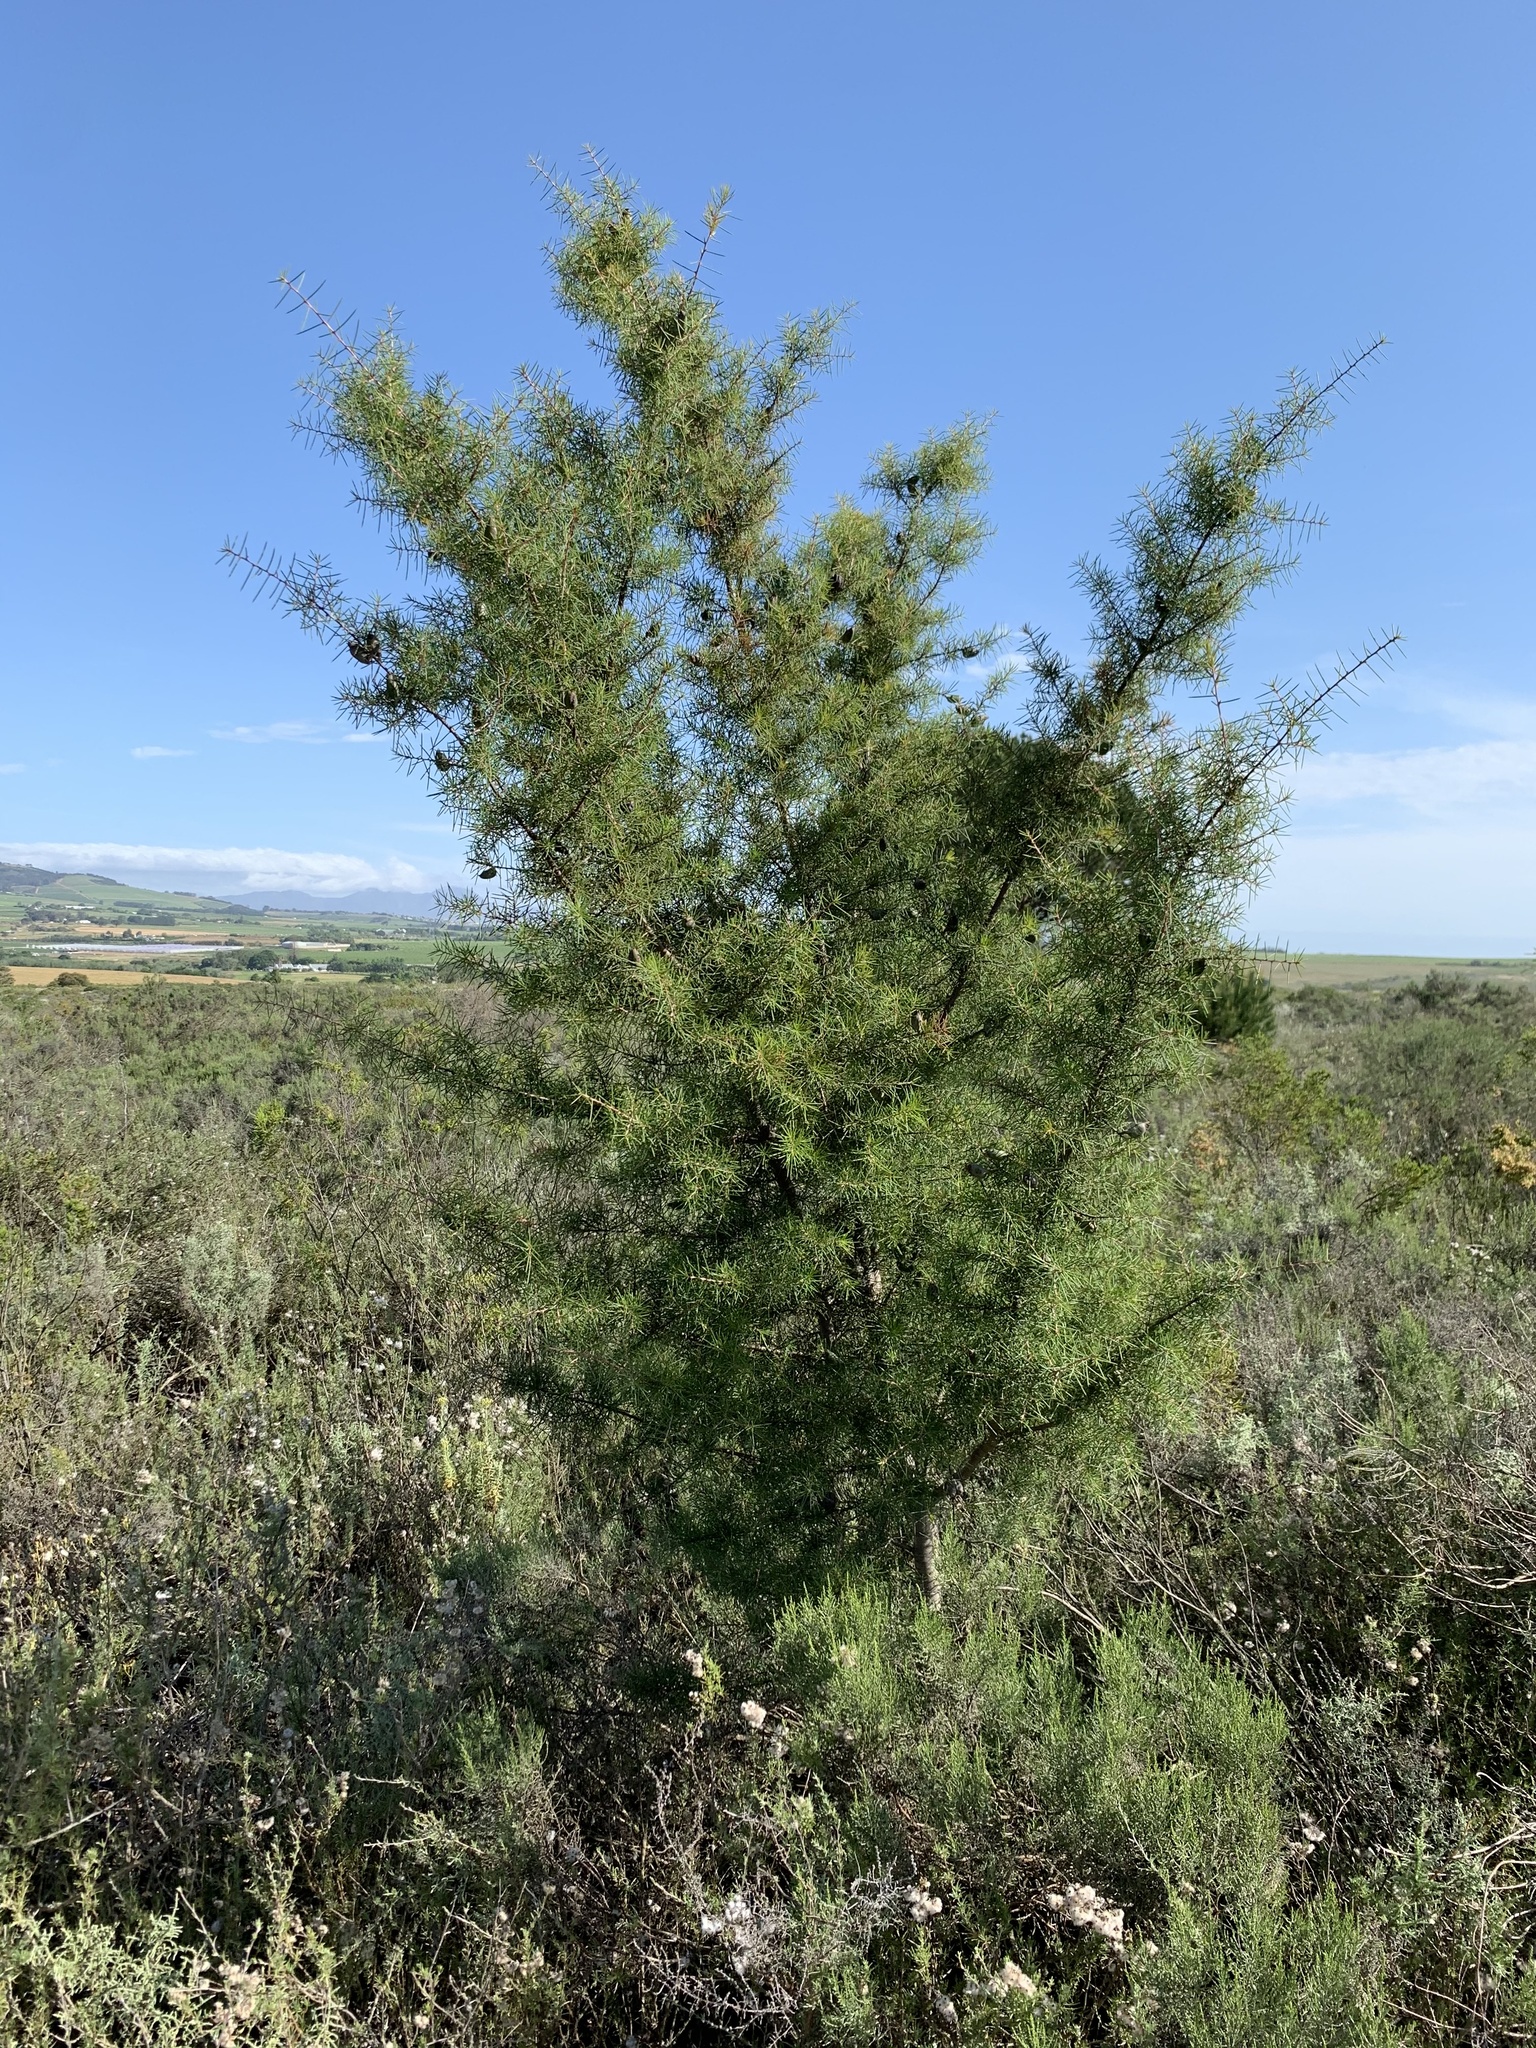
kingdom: Plantae
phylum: Tracheophyta
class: Magnoliopsida
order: Proteales
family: Proteaceae
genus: Hakea
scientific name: Hakea sericea
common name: Needle bush
